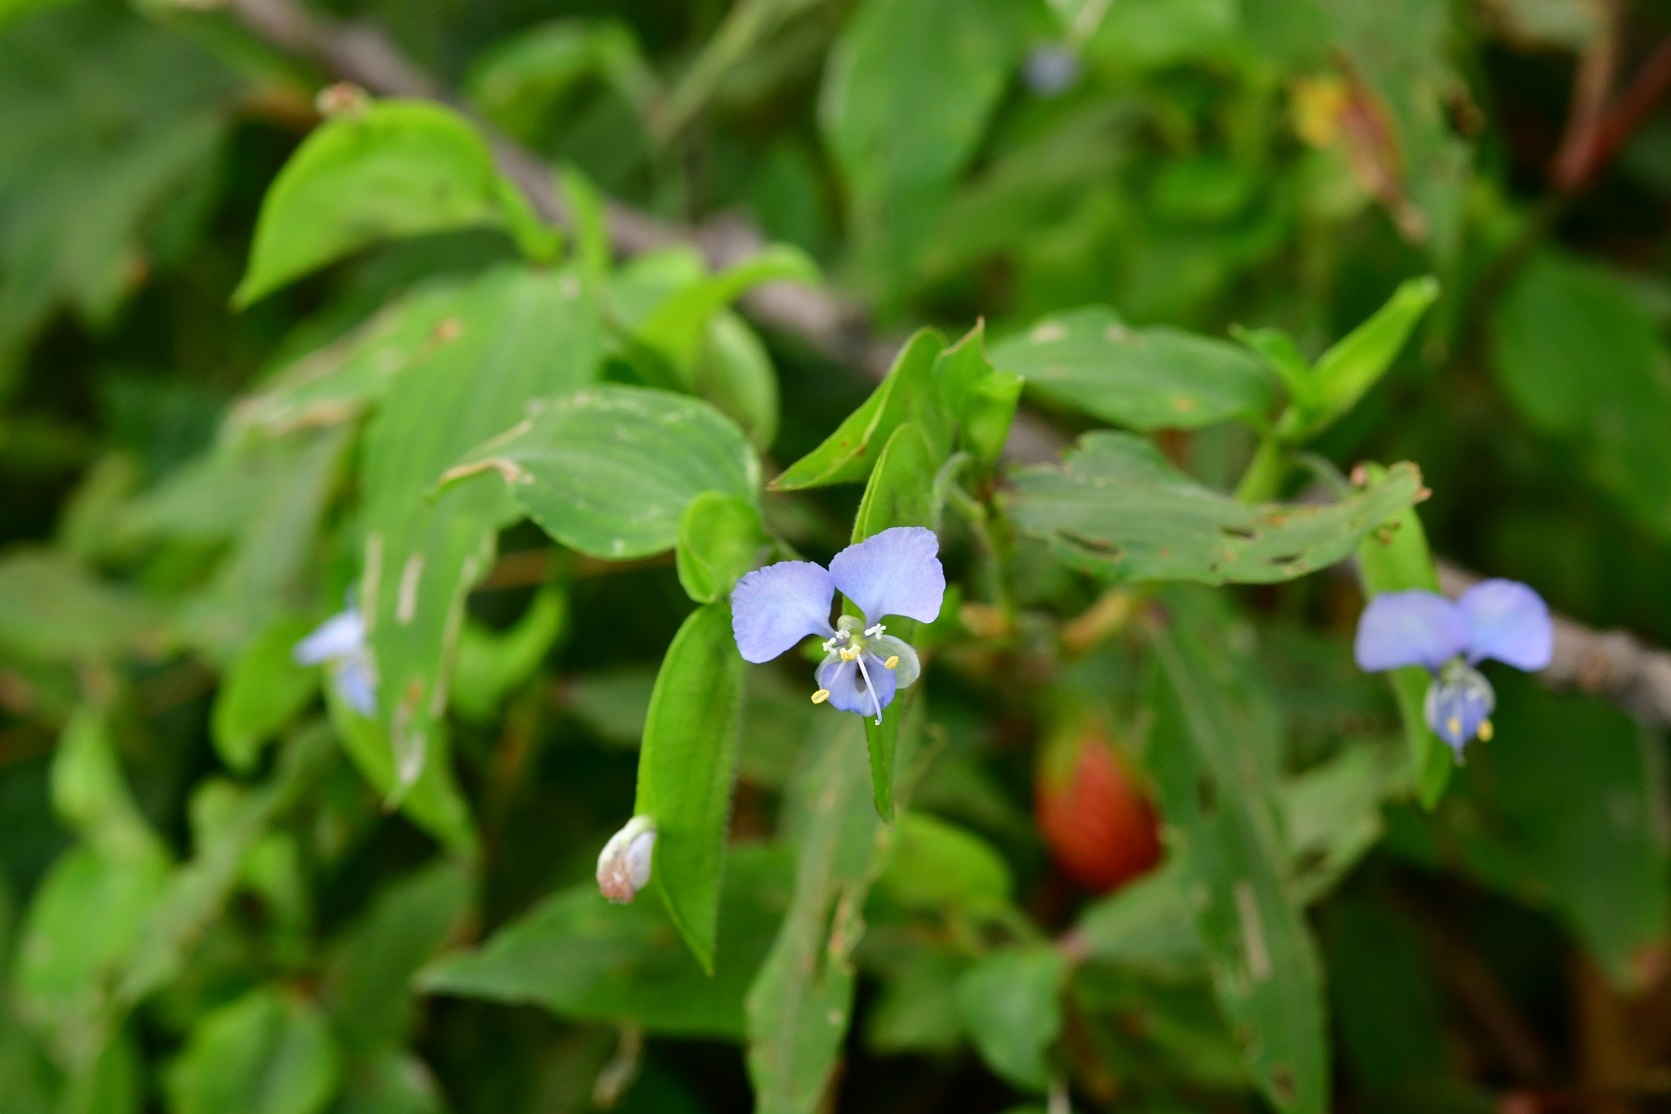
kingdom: Plantae
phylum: Tracheophyta
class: Liliopsida
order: Commelinales
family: Commelinaceae
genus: Commelina
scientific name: Commelina diffusa
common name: Climbing dayflower
